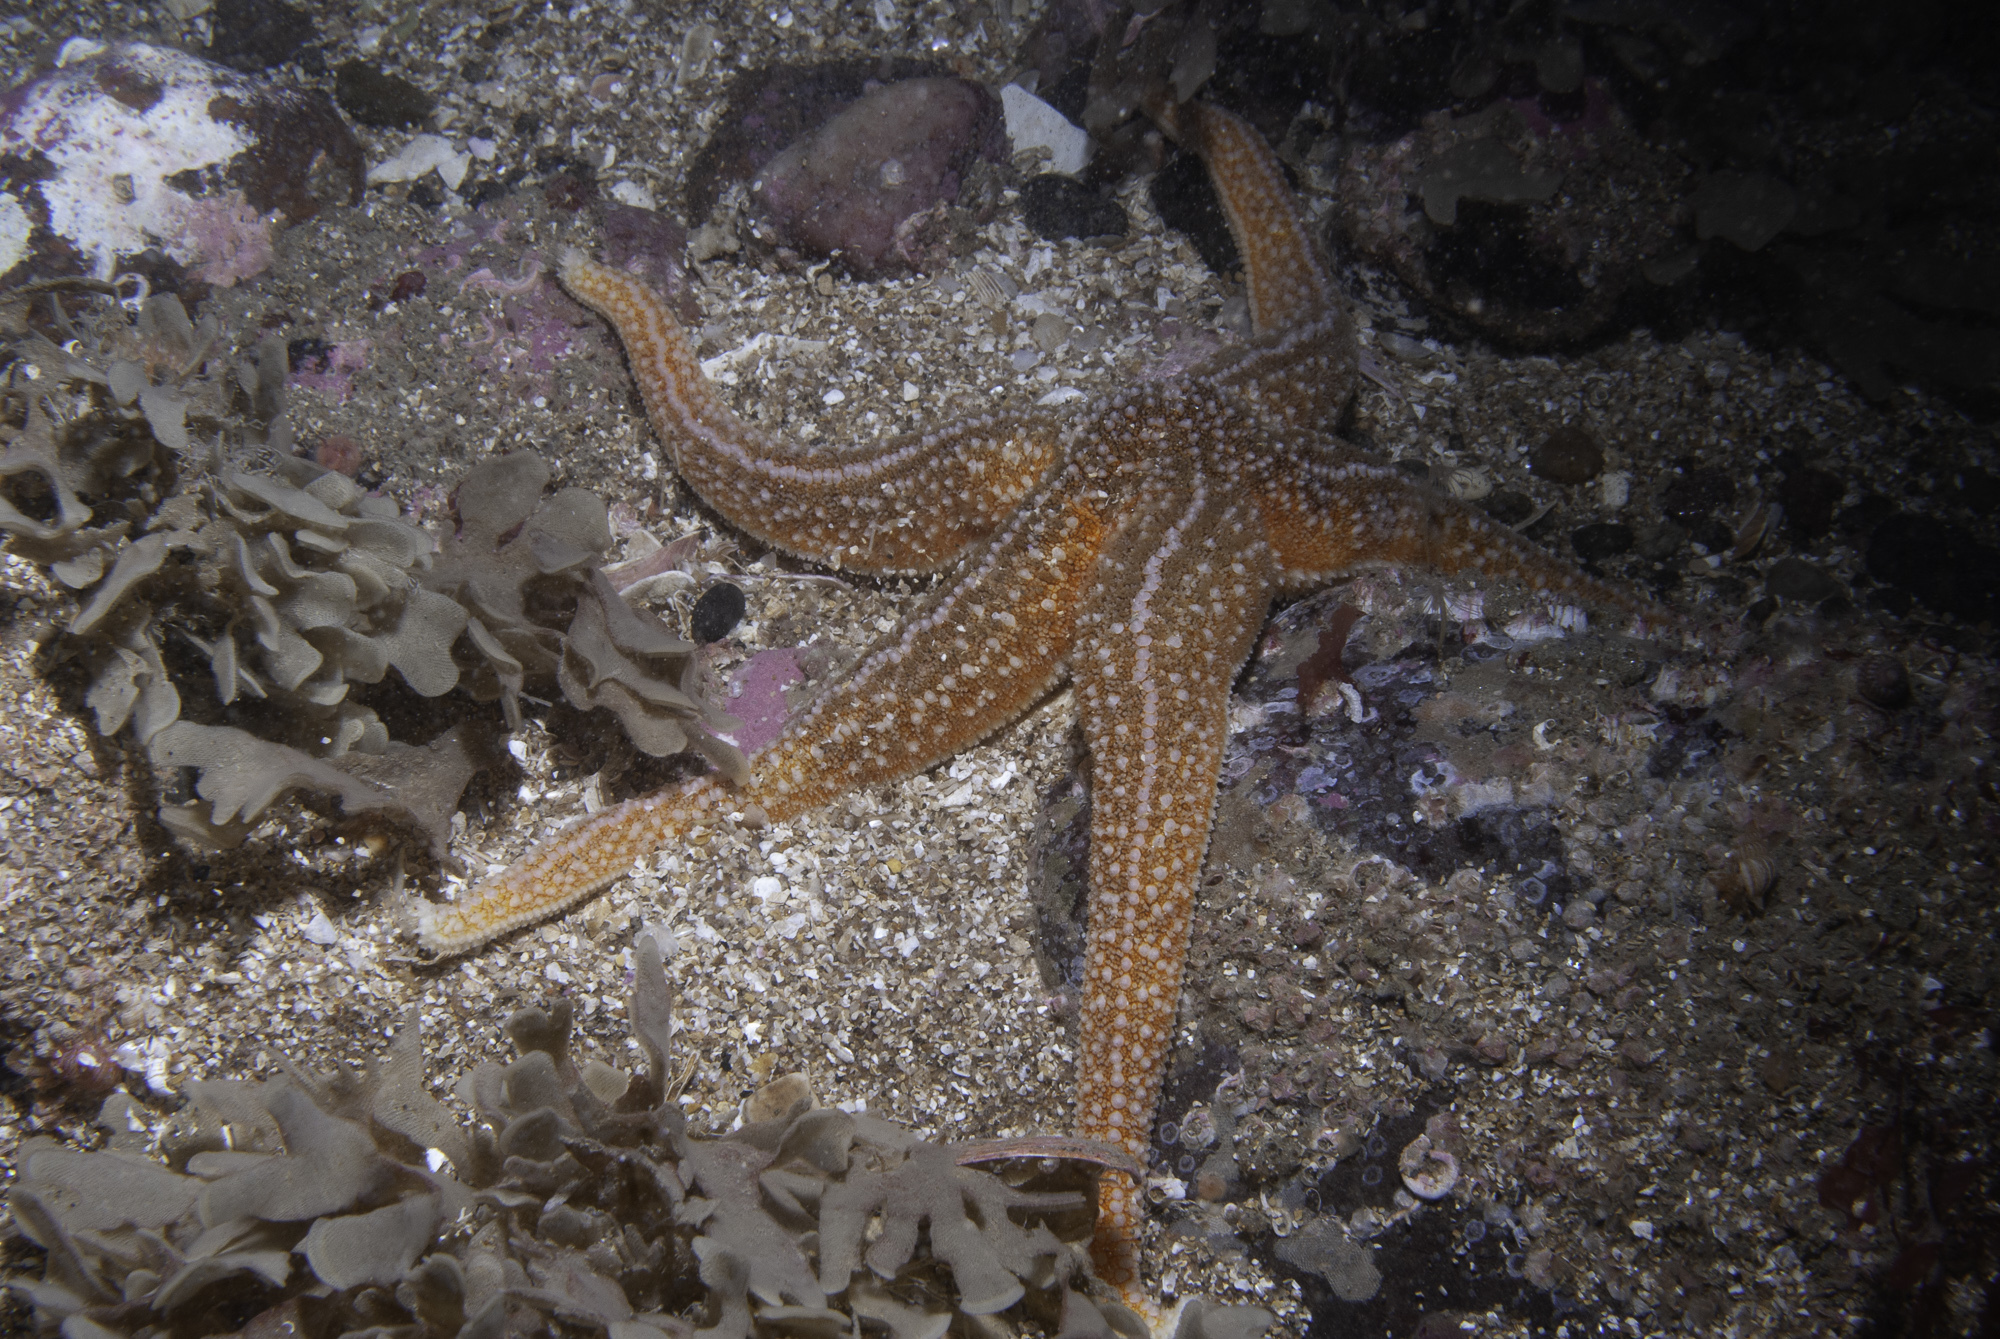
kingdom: Animalia
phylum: Echinodermata
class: Asteroidea
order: Forcipulatida
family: Asteriidae
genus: Asterias
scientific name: Asterias rubens
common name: Common starfish
